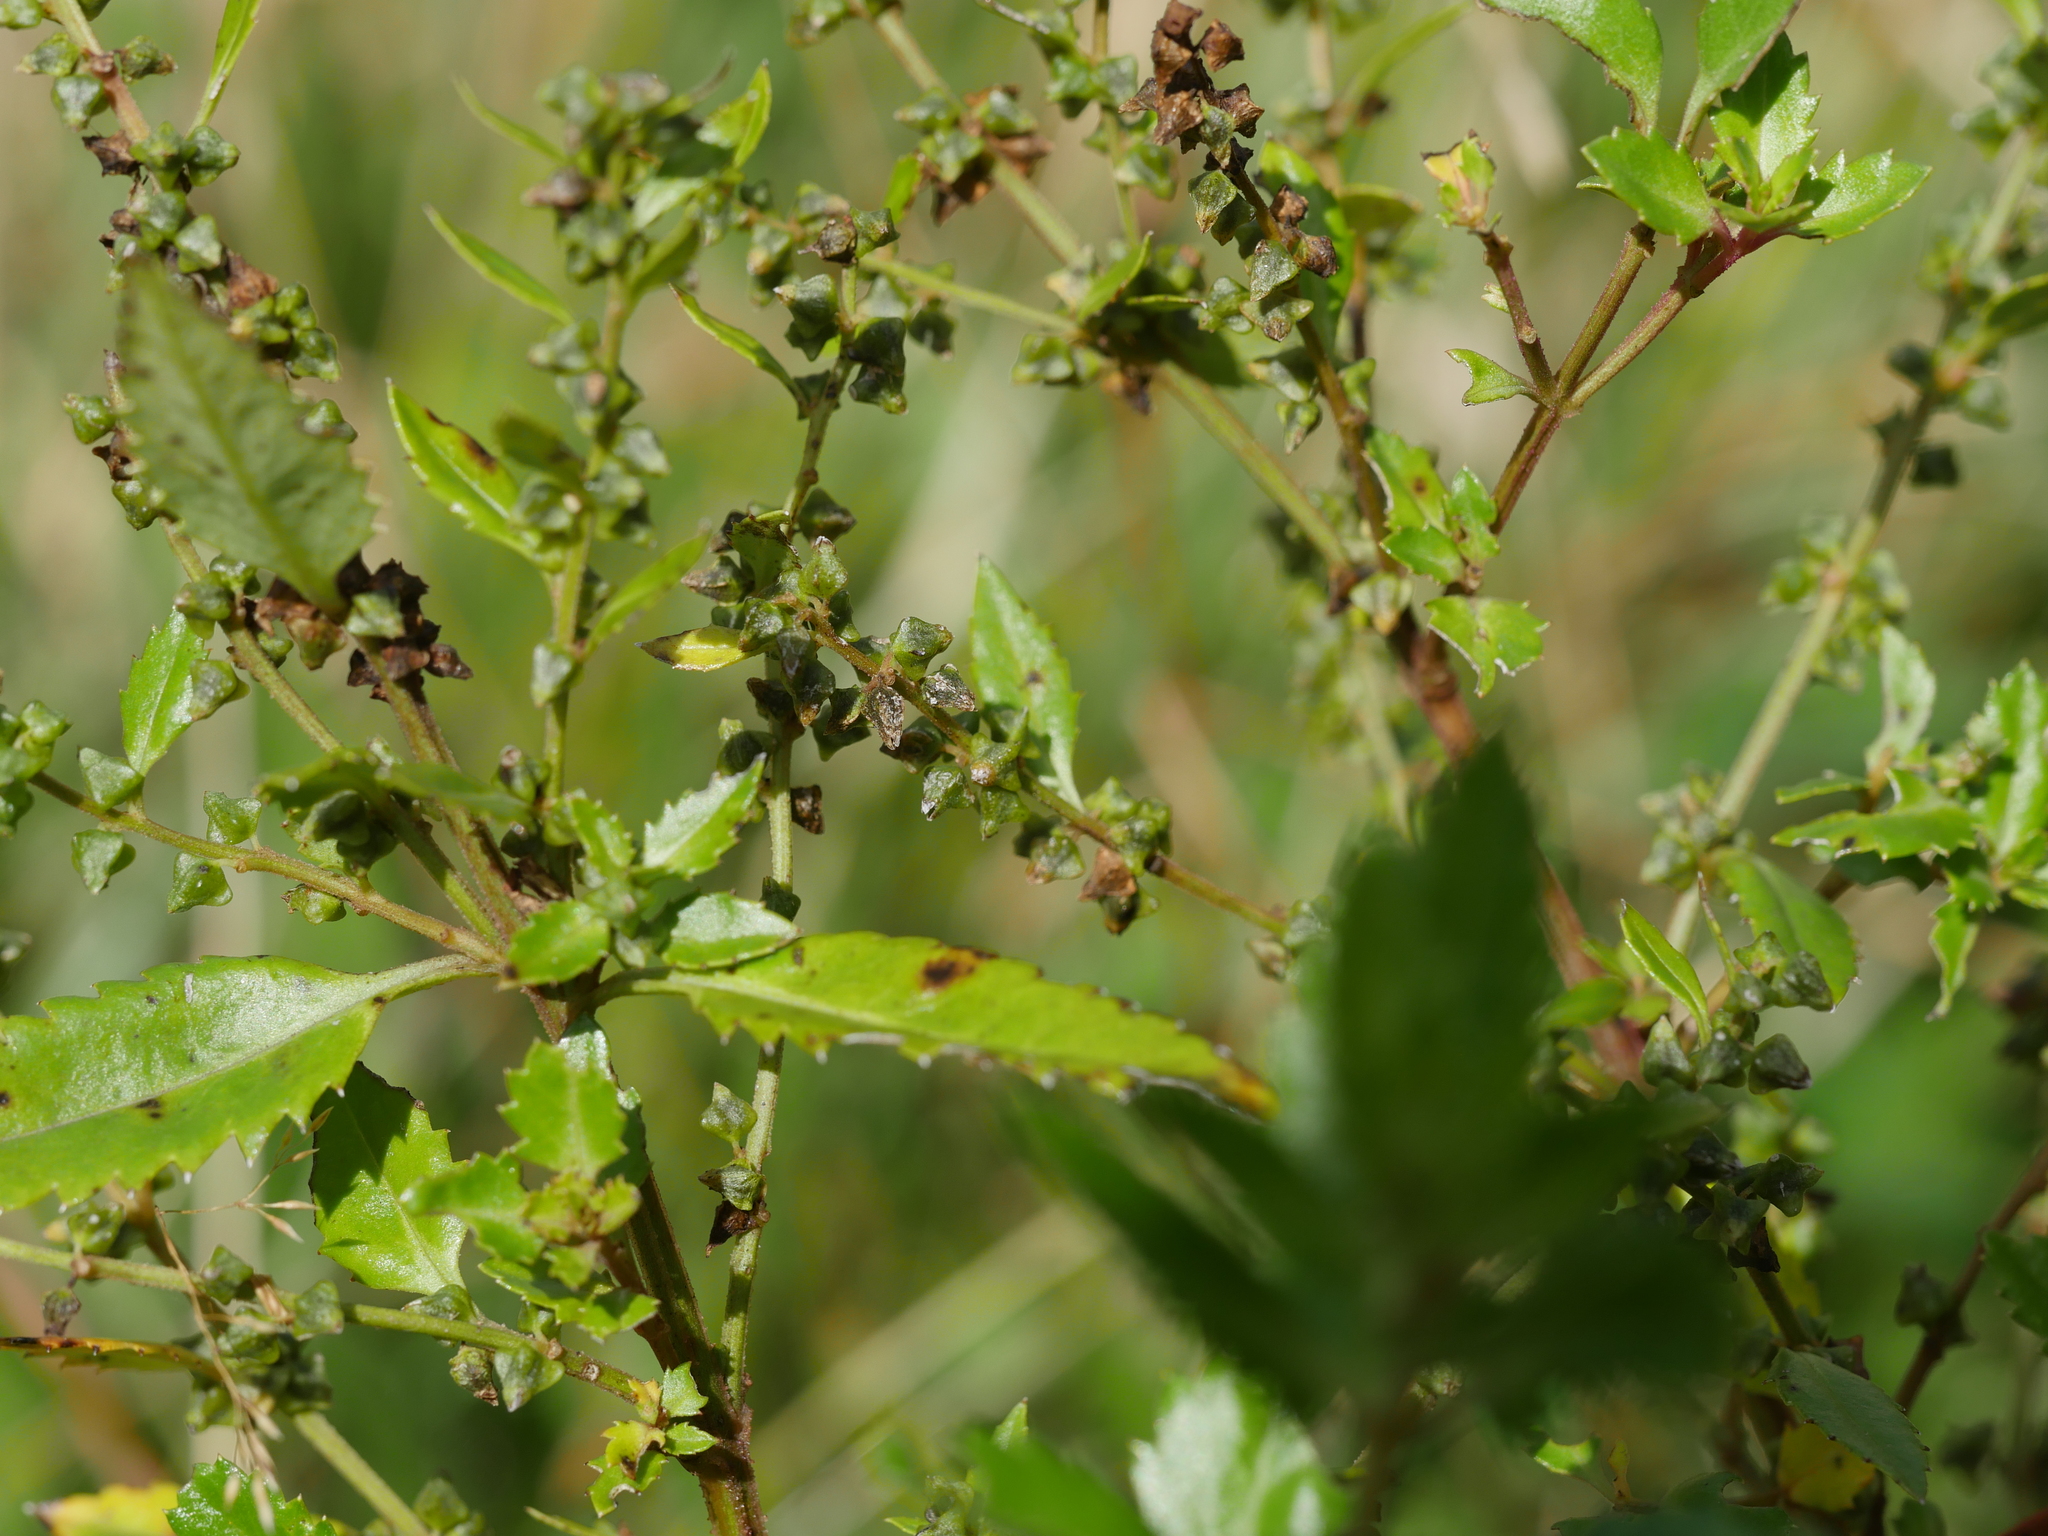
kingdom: Plantae
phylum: Tracheophyta
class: Magnoliopsida
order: Saxifragales
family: Haloragaceae
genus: Haloragis
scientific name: Haloragis erecta
